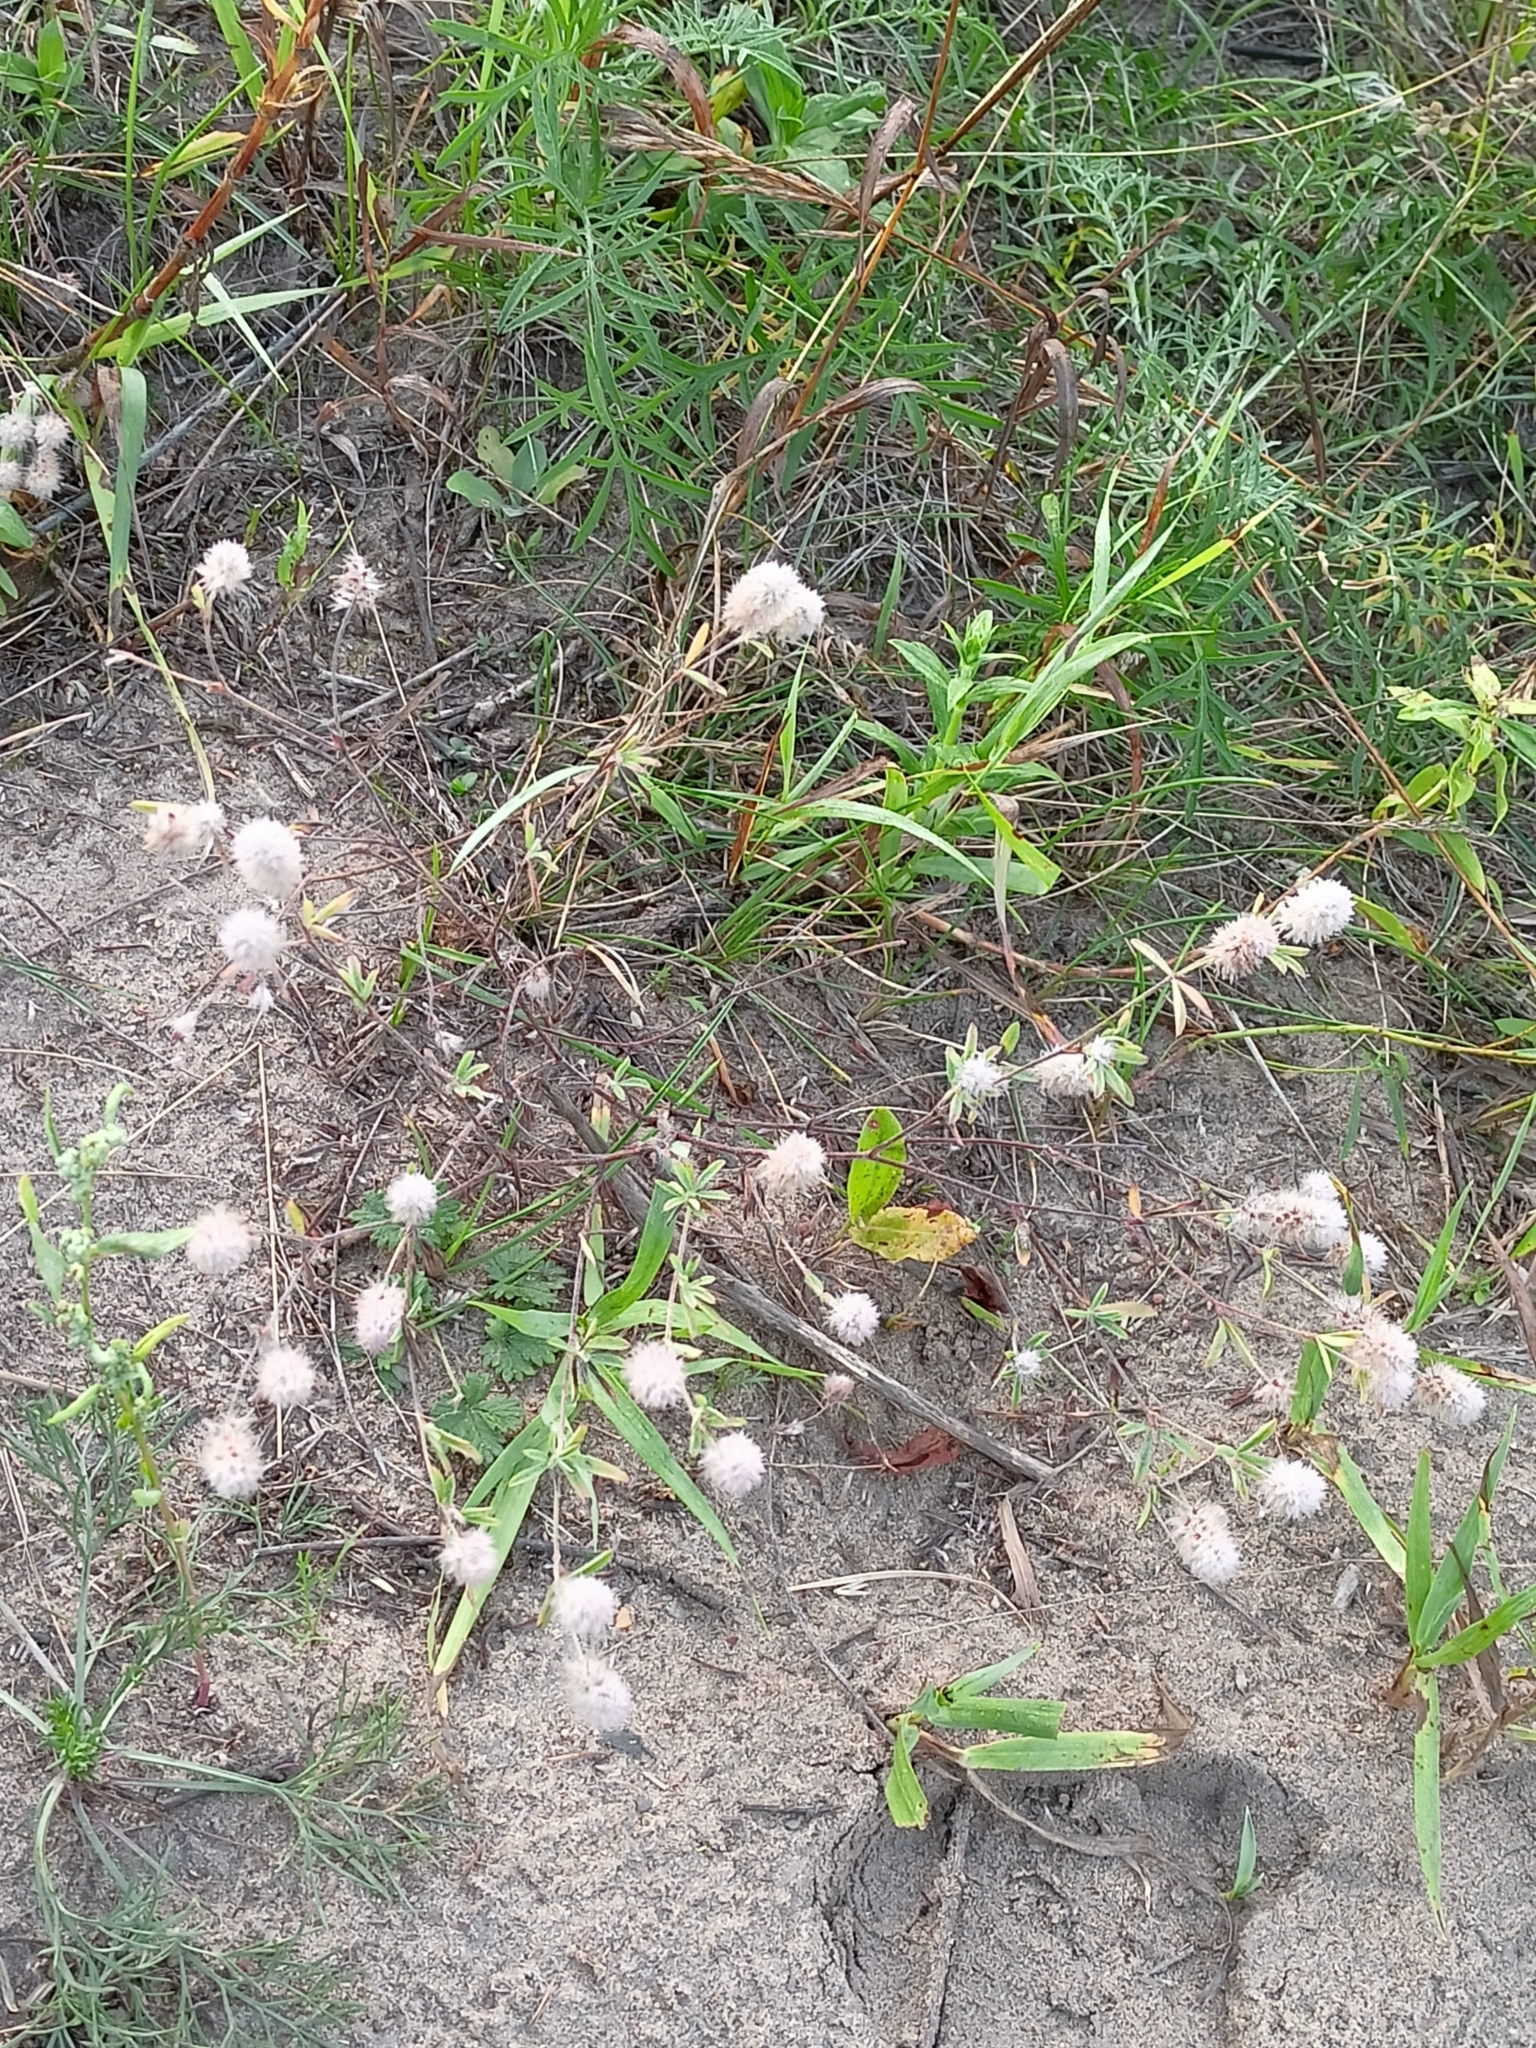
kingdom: Plantae
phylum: Tracheophyta
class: Magnoliopsida
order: Fabales
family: Fabaceae
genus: Trifolium
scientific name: Trifolium arvense
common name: Hare's-foot clover
